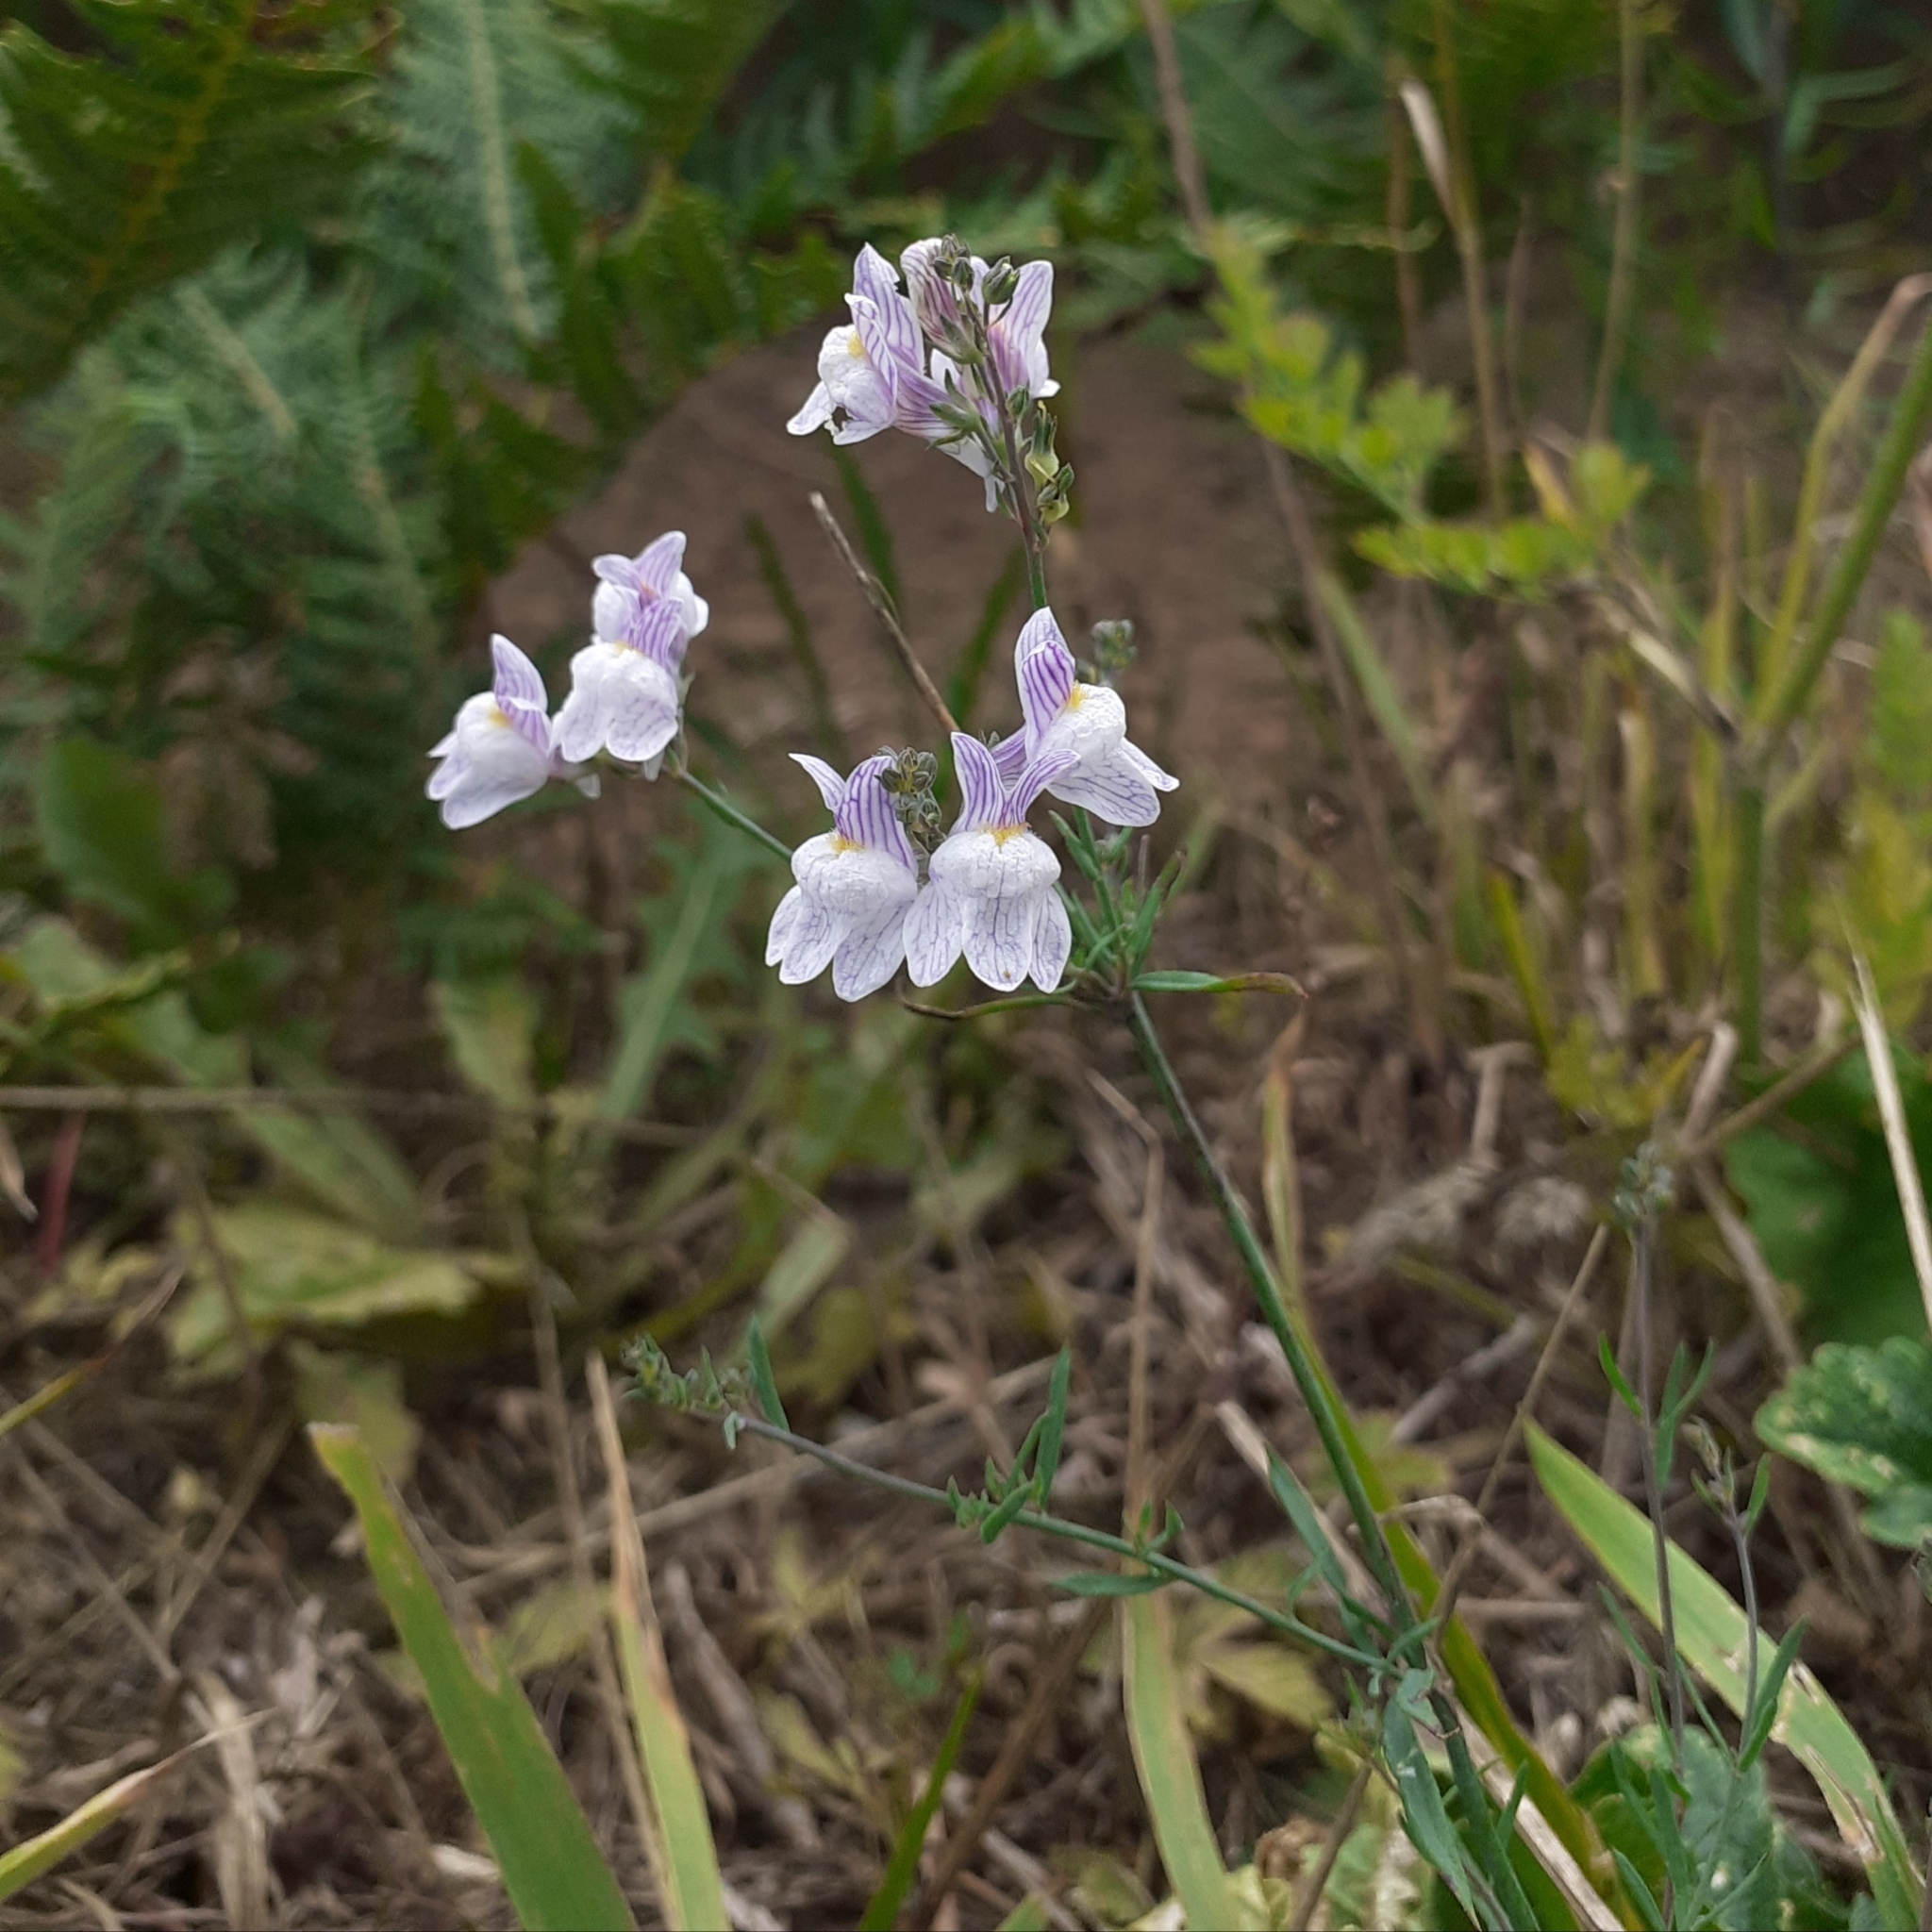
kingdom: Plantae
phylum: Tracheophyta
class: Magnoliopsida
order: Lamiales
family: Plantaginaceae
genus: Linaria
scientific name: Linaria repens
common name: Pale toadflax
